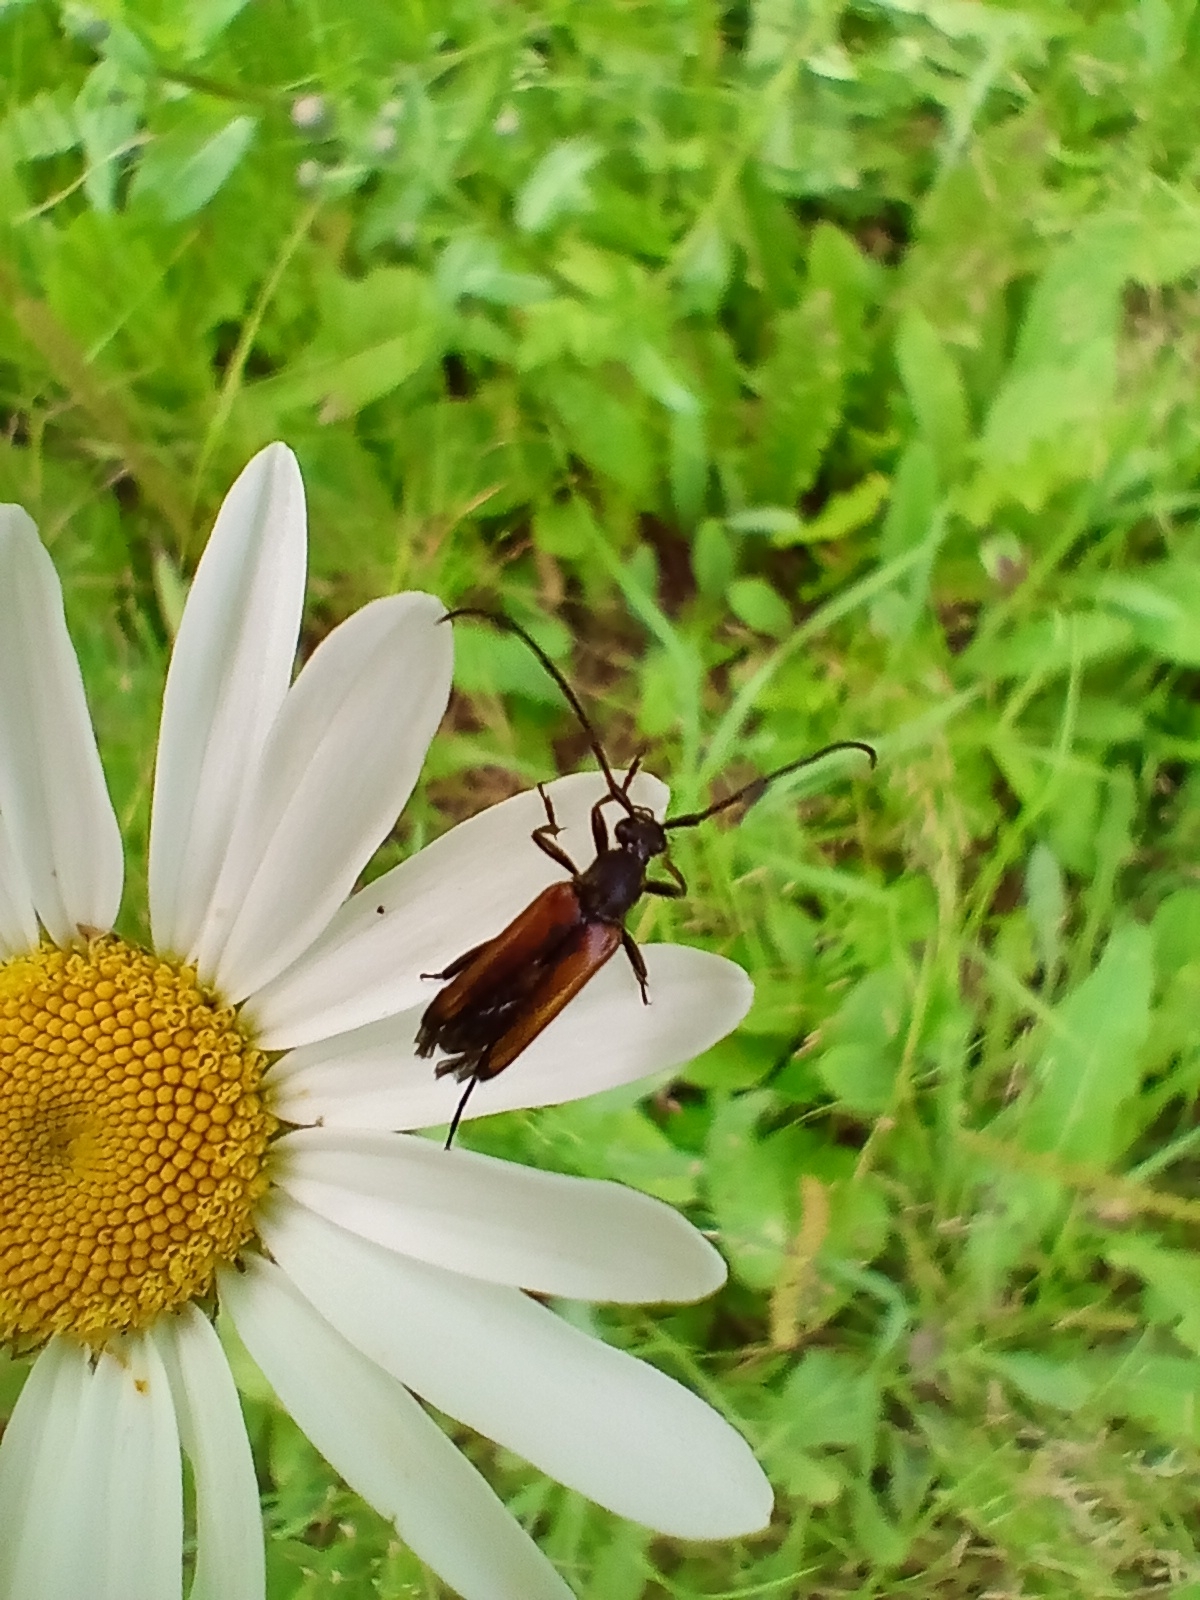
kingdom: Animalia
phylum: Arthropoda
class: Insecta
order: Coleoptera
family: Cerambycidae
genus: Stenurella
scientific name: Stenurella melanura
